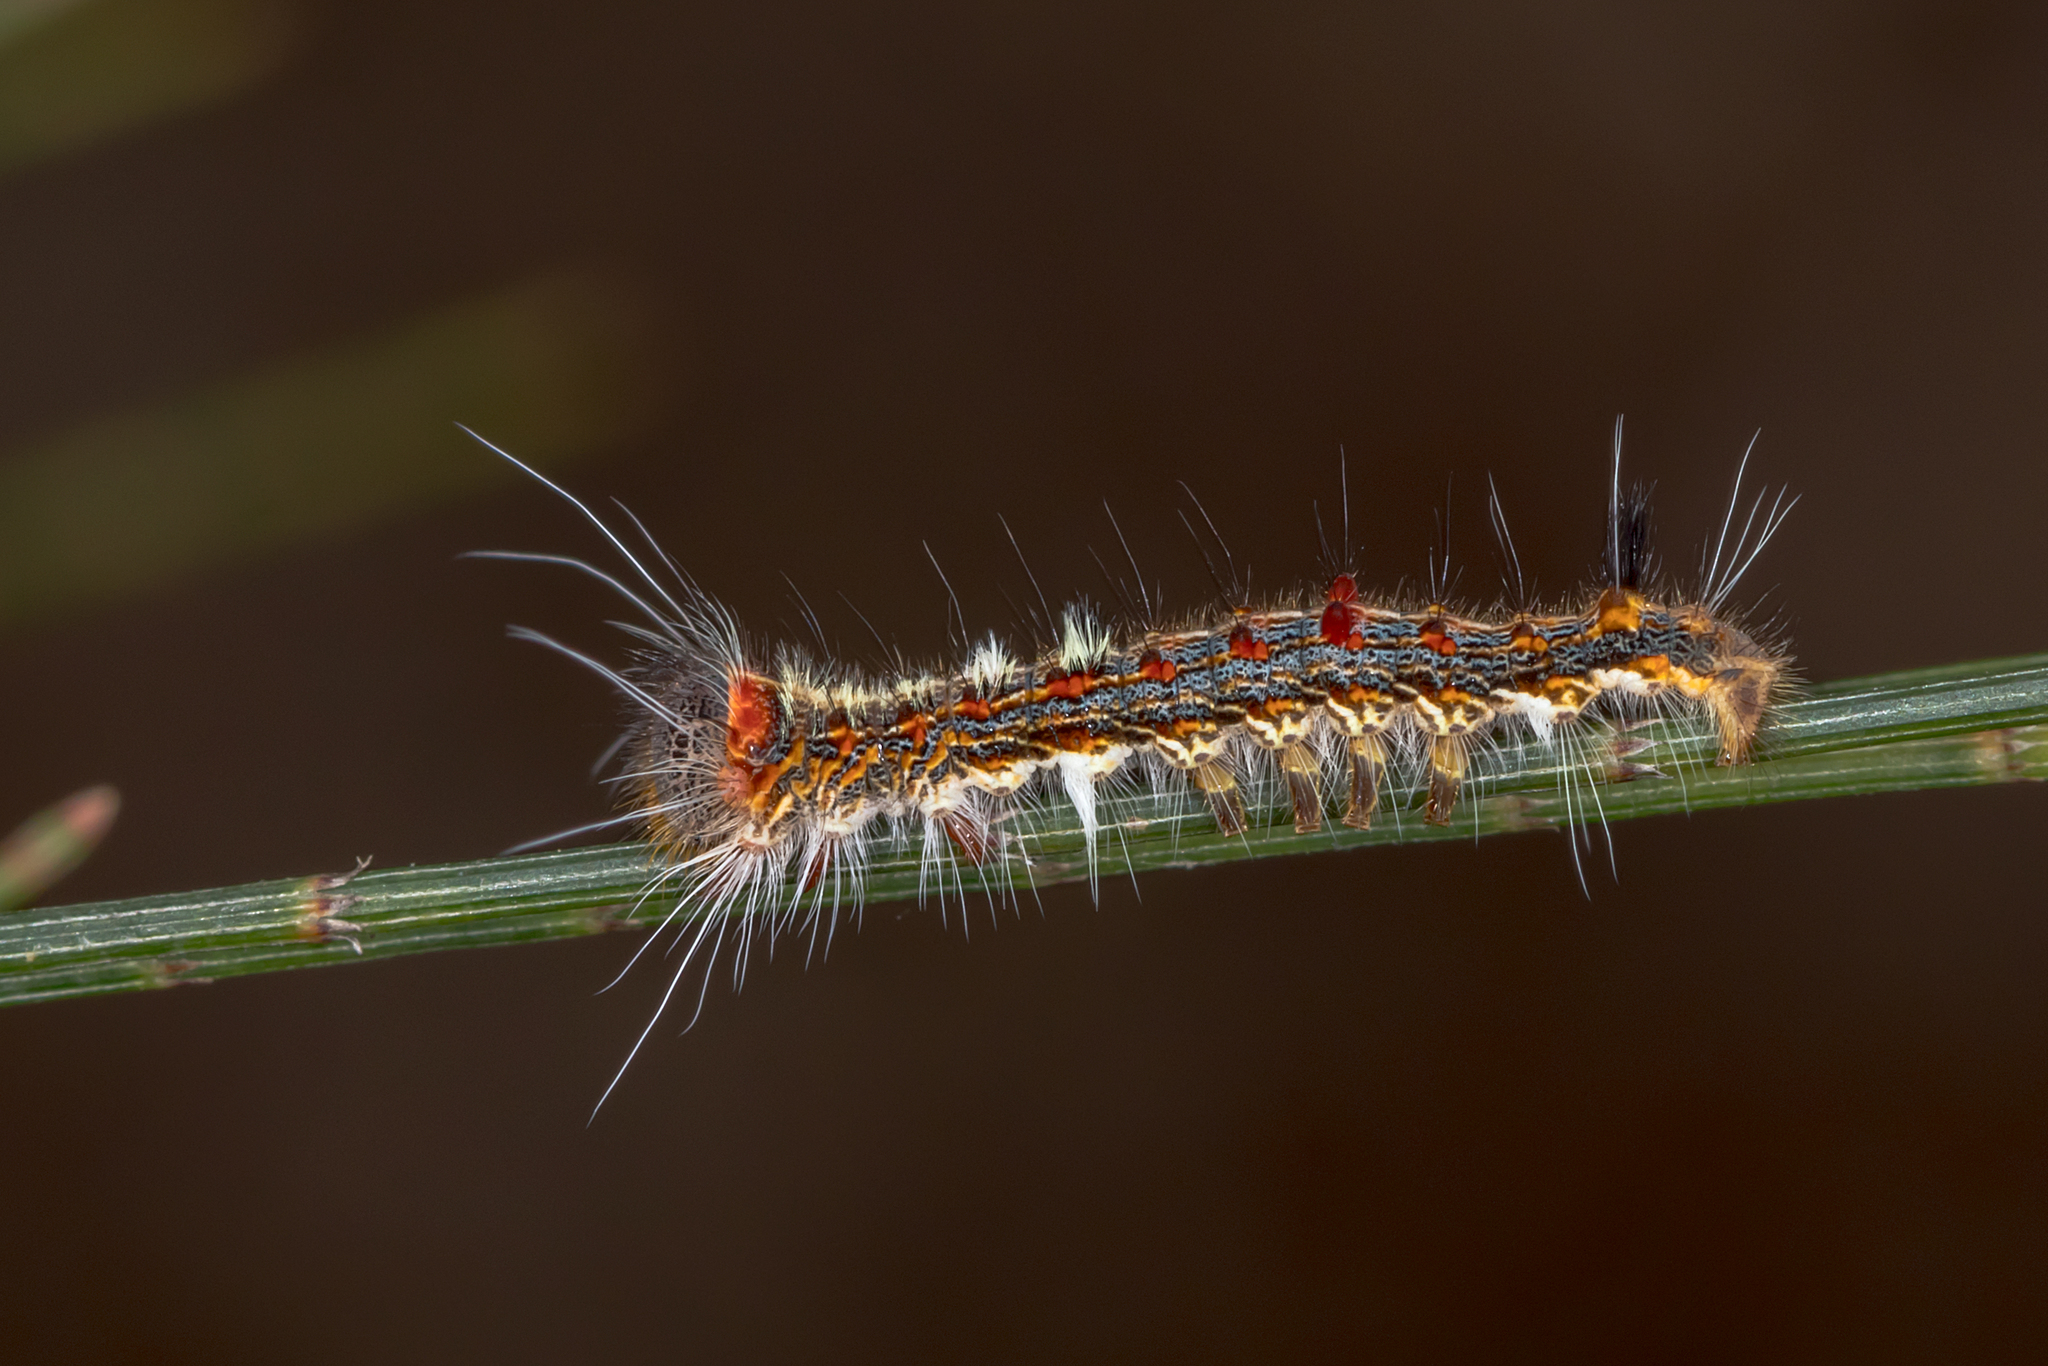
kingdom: Animalia
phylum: Arthropoda
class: Insecta
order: Lepidoptera
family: Lasiocampidae
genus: Pernattia
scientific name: Pernattia pusilla
